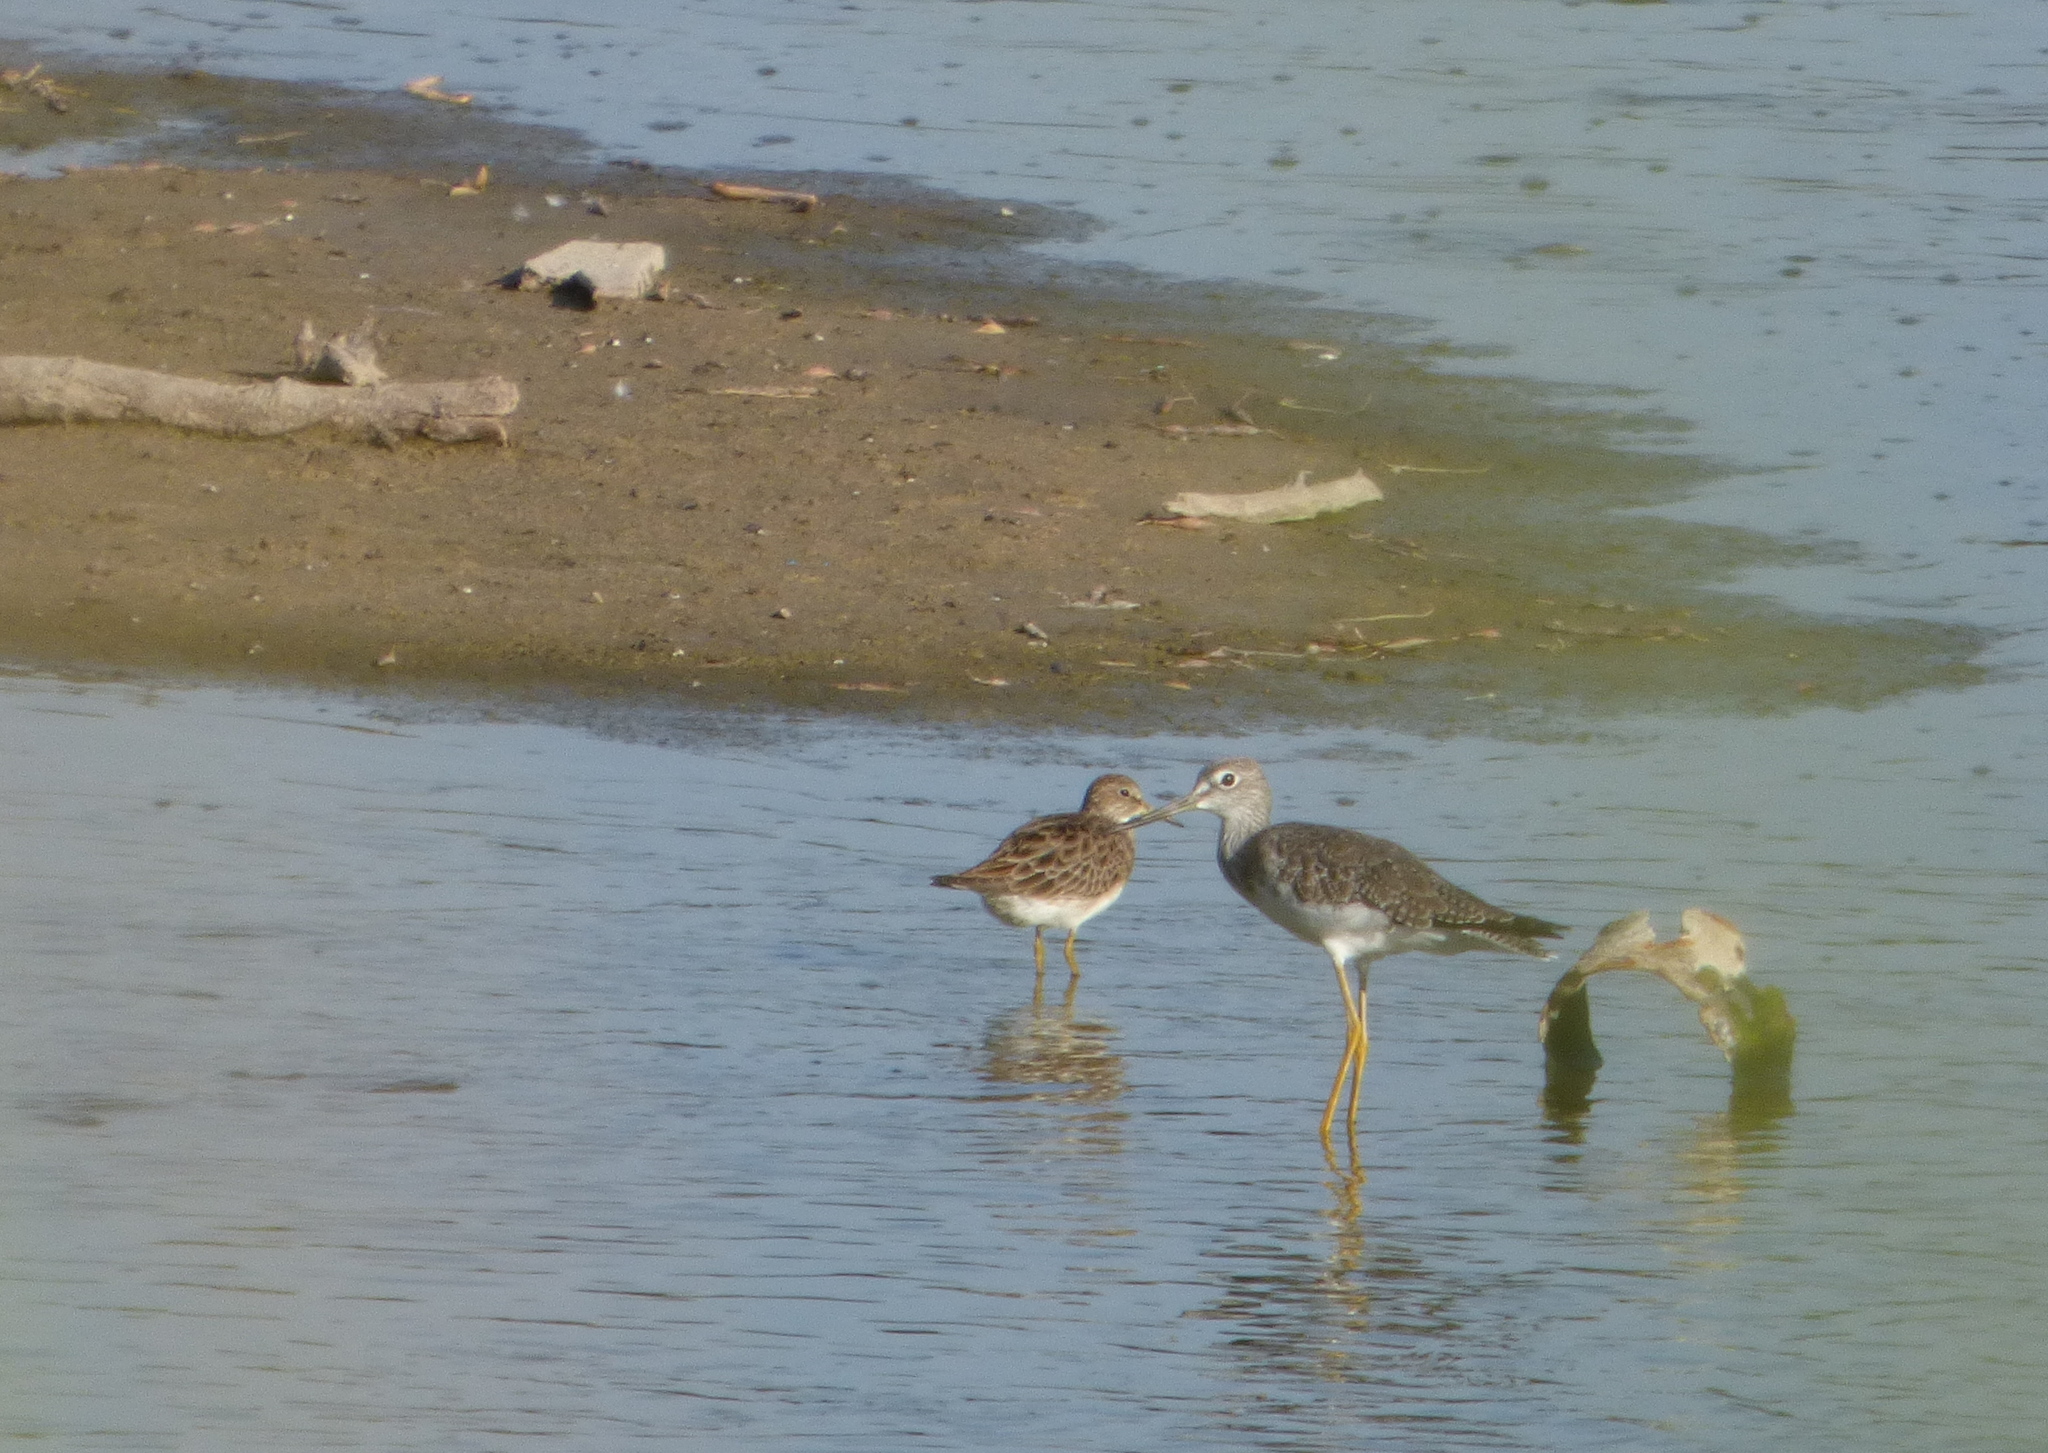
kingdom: Animalia
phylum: Chordata
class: Aves
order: Charadriiformes
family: Scolopacidae
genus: Tringa
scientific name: Tringa melanoleuca
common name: Greater yellowlegs
